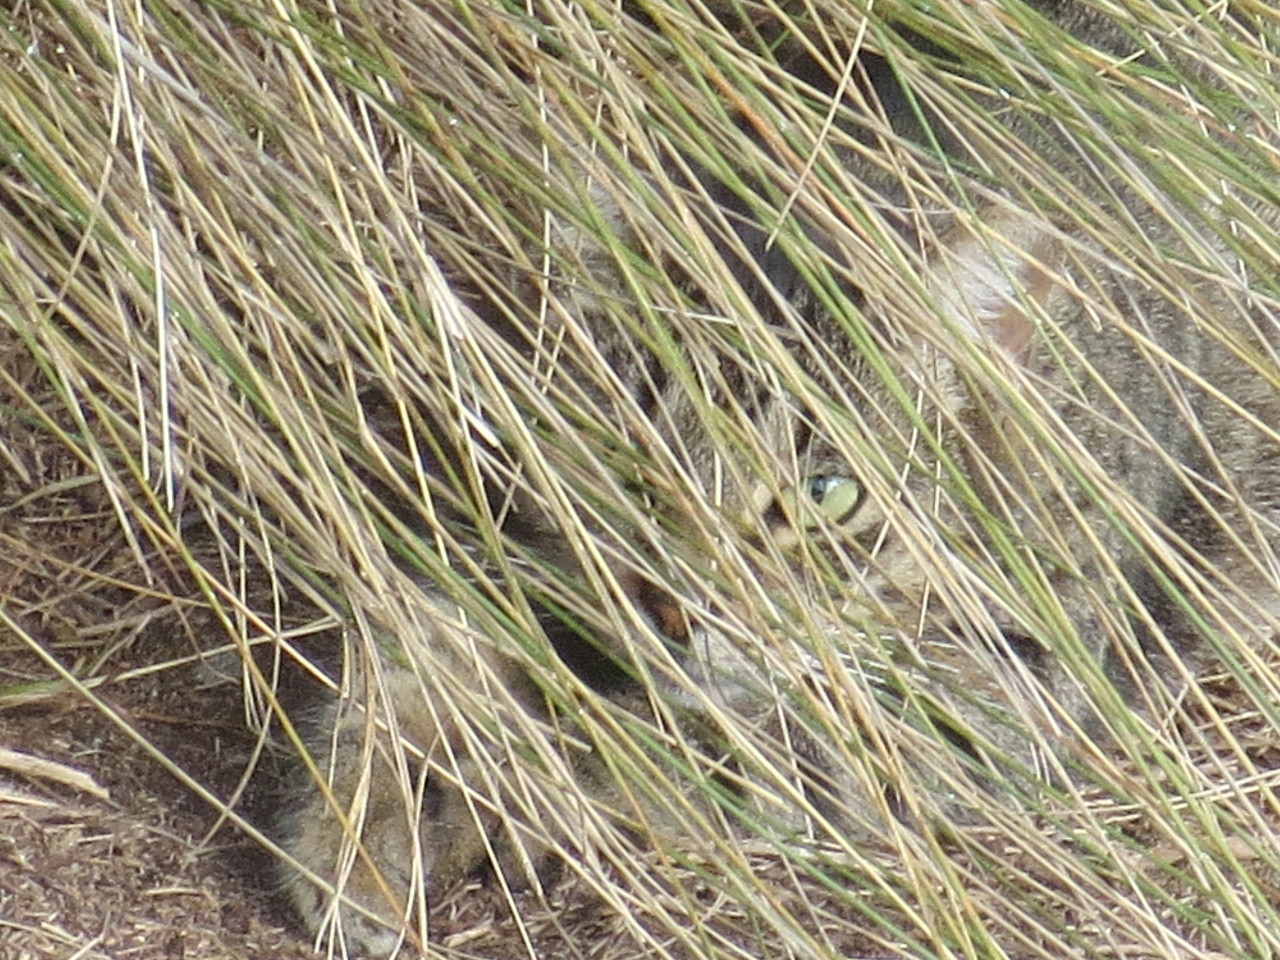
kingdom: Animalia
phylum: Chordata
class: Mammalia
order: Carnivora
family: Felidae
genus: Felis
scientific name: Felis catus
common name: Domestic cat
